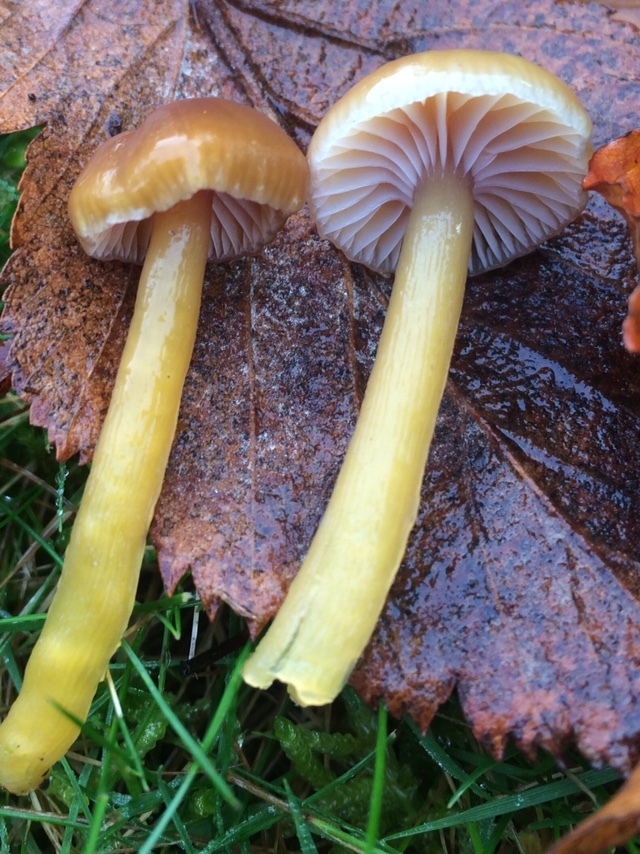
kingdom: Fungi
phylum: Basidiomycota
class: Agaricomycetes
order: Agaricales
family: Hygrophoraceae
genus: Gliophorus
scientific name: Gliophorus laetus
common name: Heath waxcap
